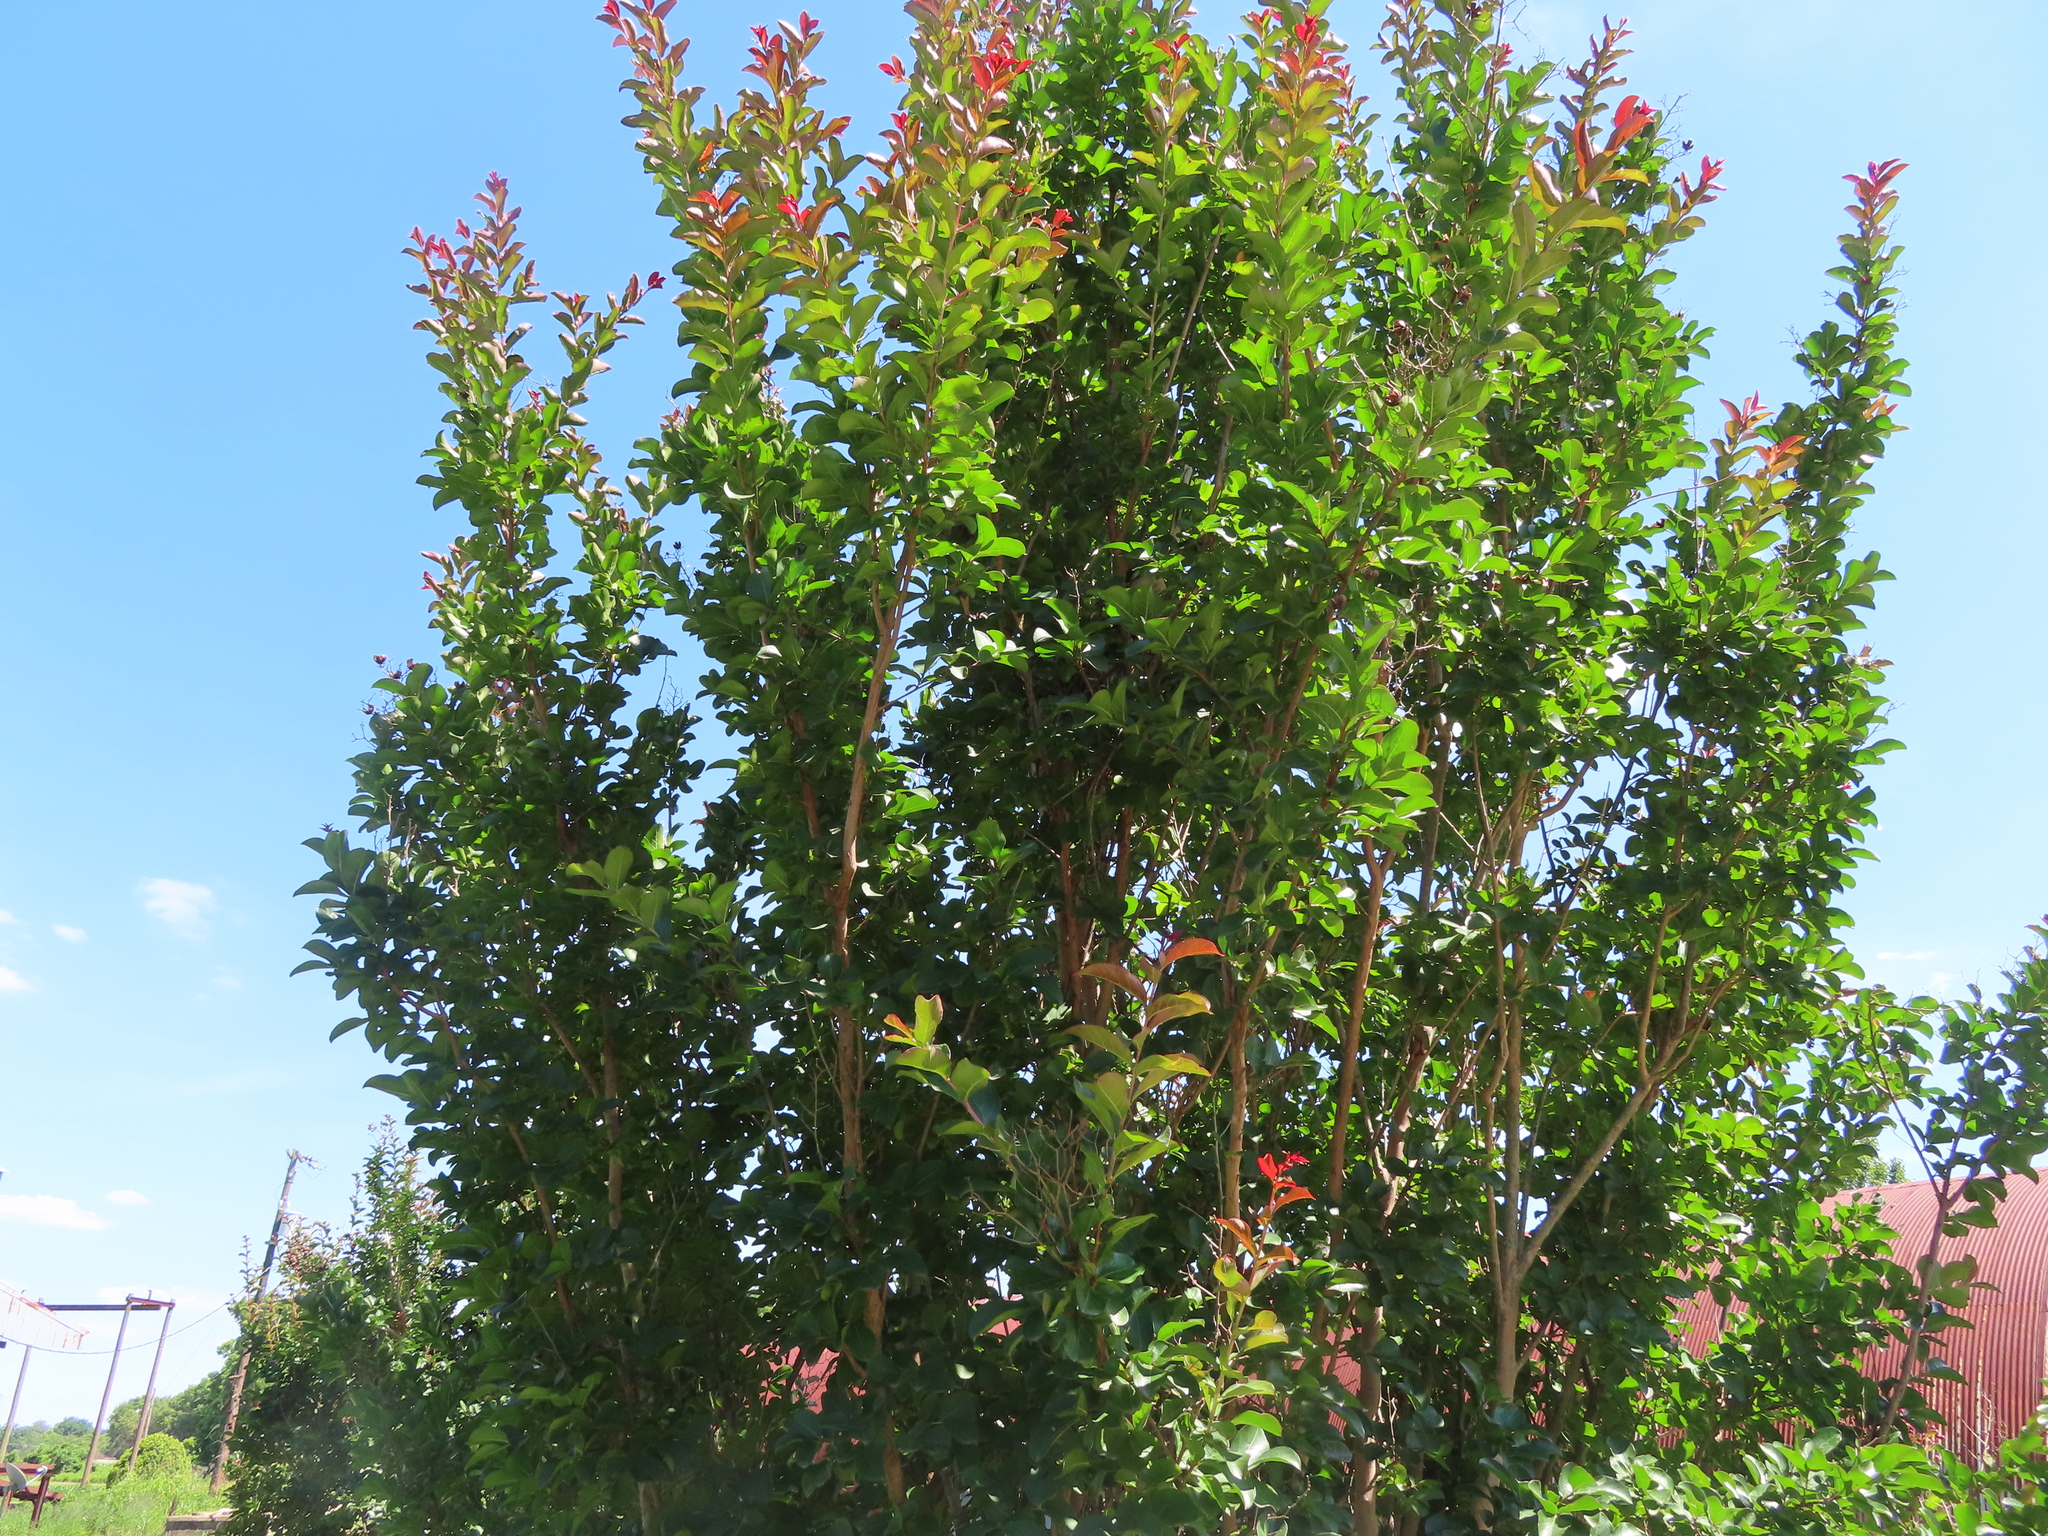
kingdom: Animalia
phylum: Chordata
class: Aves
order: Passeriformes
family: Mimidae
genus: Mimus
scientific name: Mimus polyglottos
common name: Northern mockingbird
